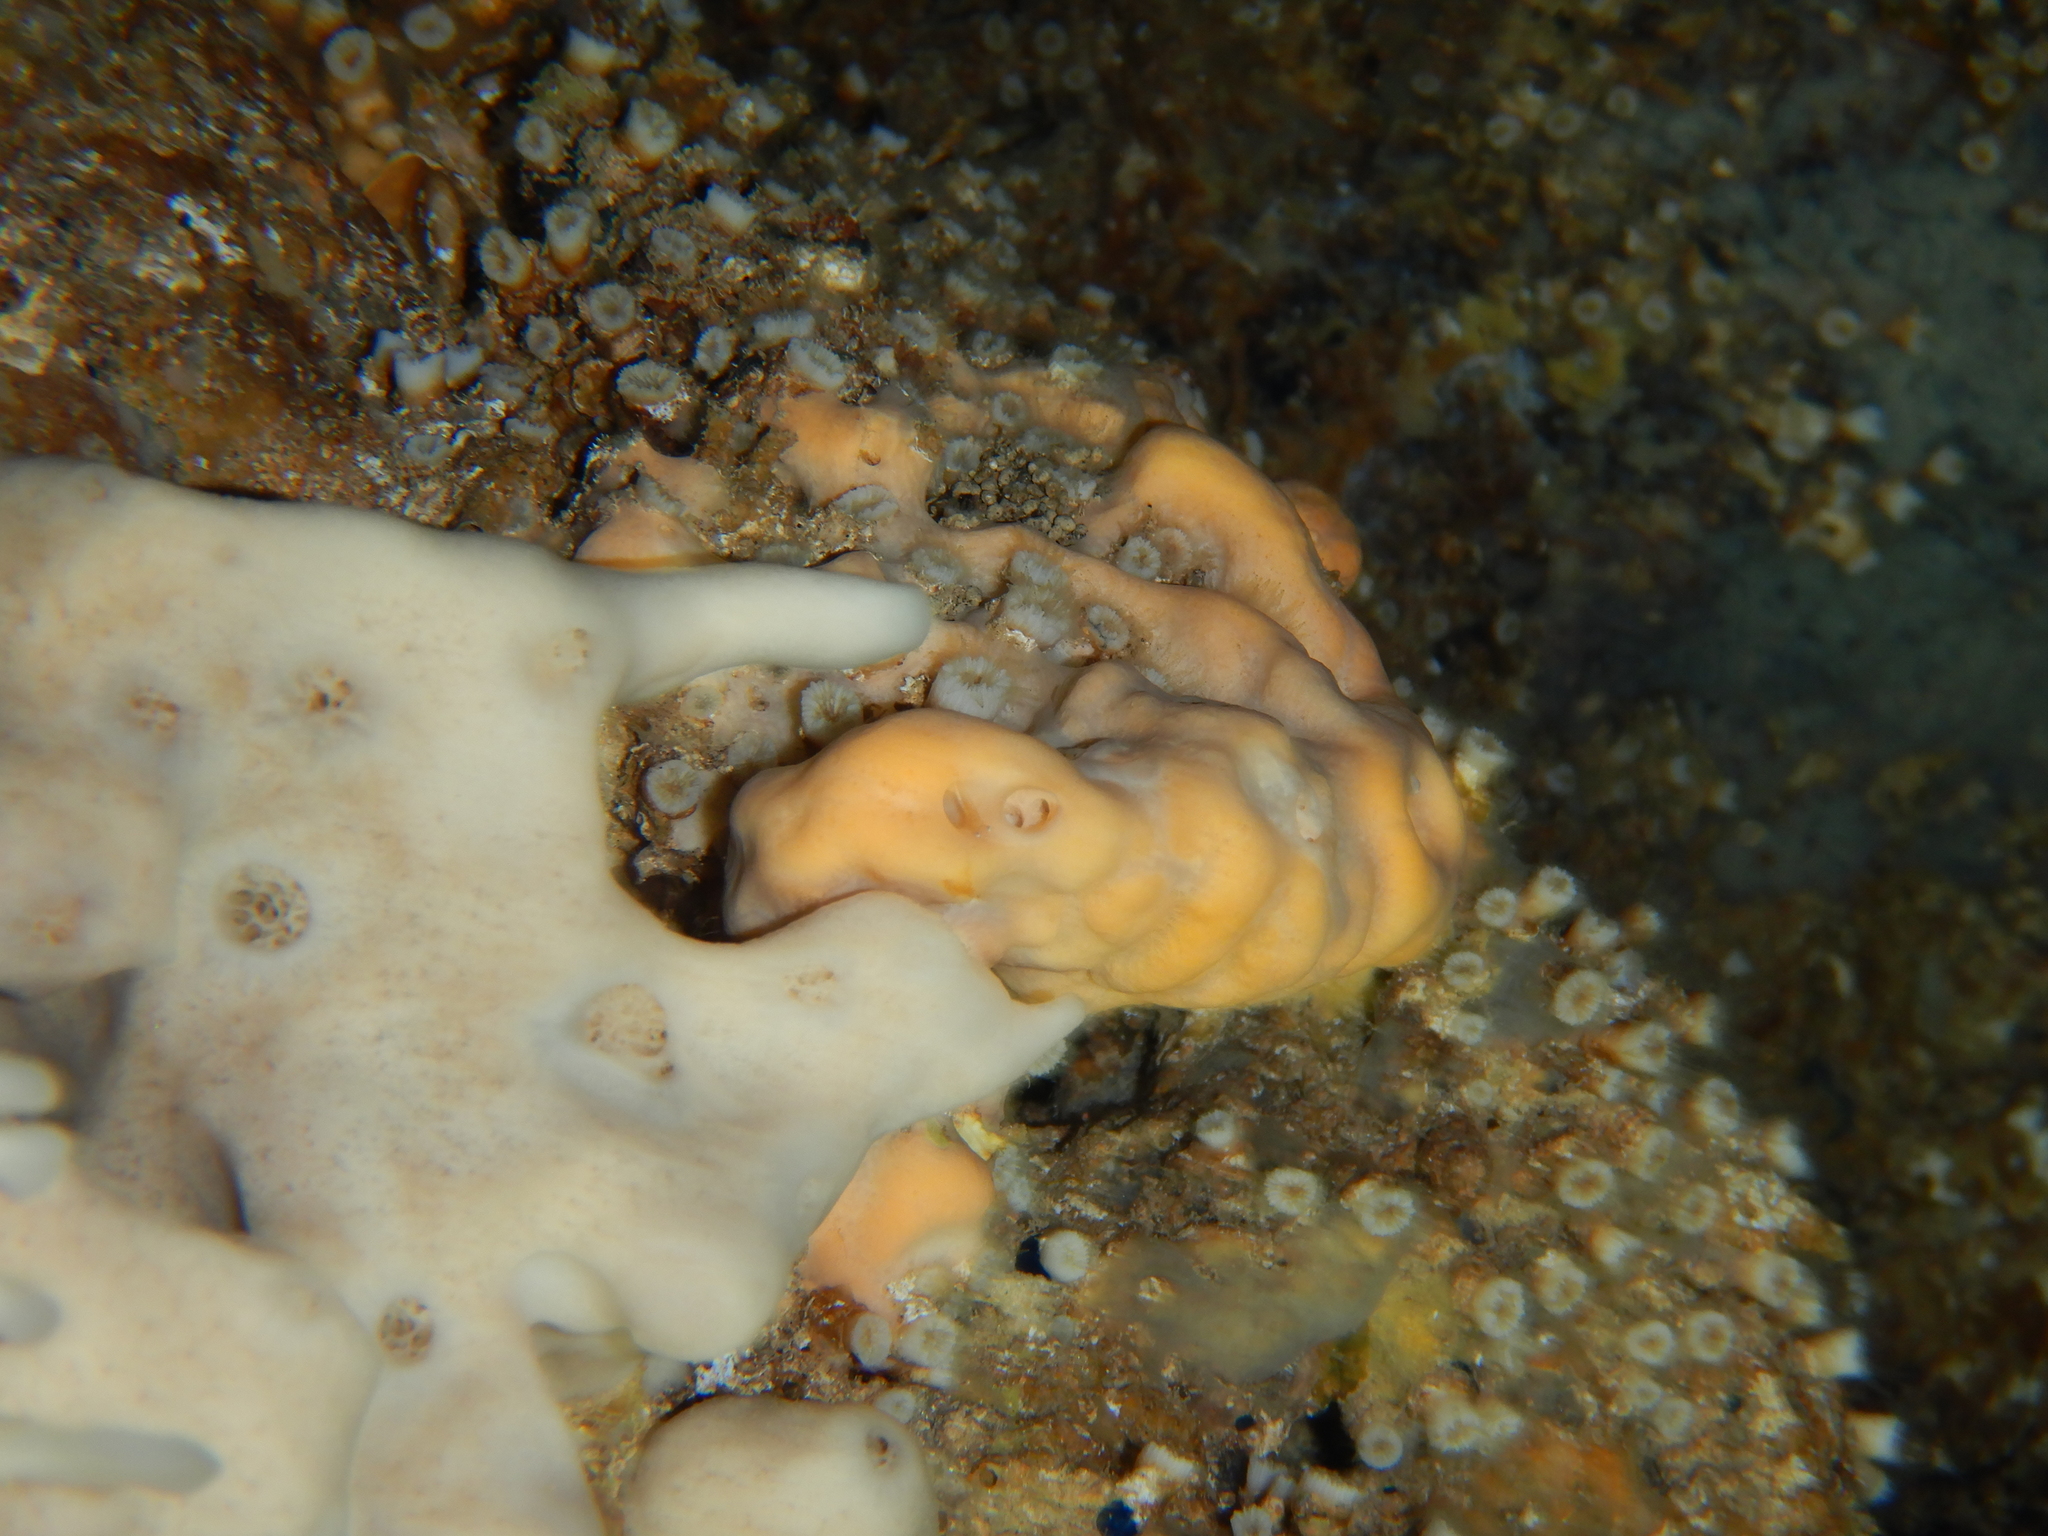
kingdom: Animalia
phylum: Porifera
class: Demospongiae
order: Agelasida
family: Agelasidae
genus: Agelas
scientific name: Agelas oroides
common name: Maltese sponge
